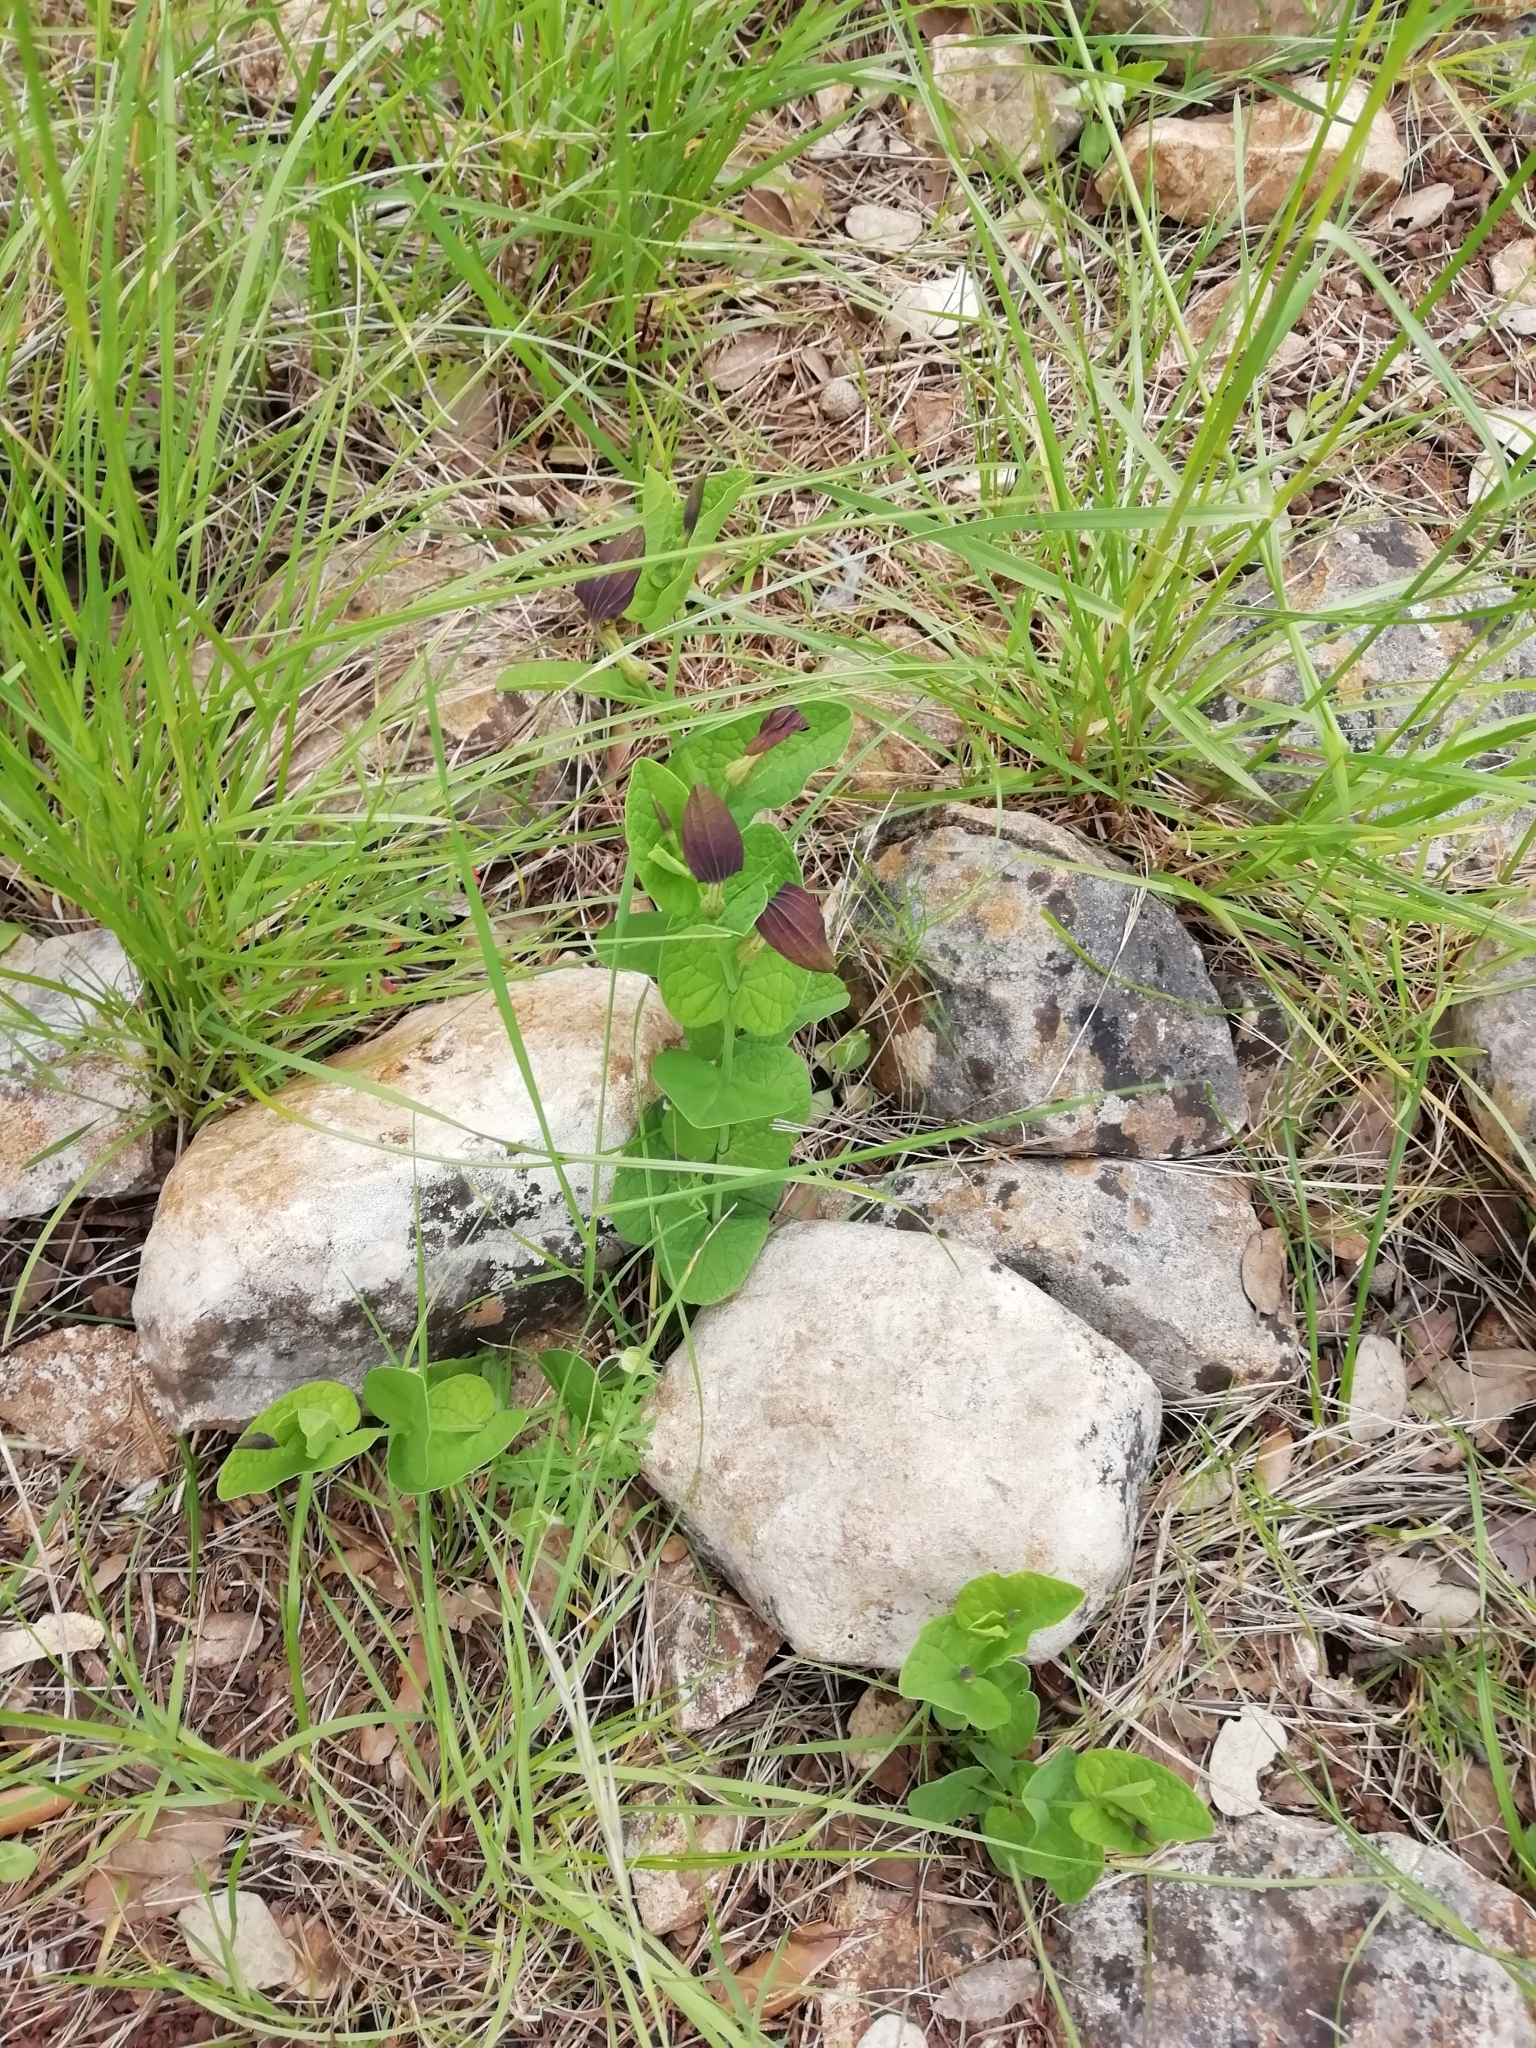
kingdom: Plantae
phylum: Tracheophyta
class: Magnoliopsida
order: Piperales
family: Aristolochiaceae
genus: Aristolochia
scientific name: Aristolochia rotunda
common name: Smearwort
